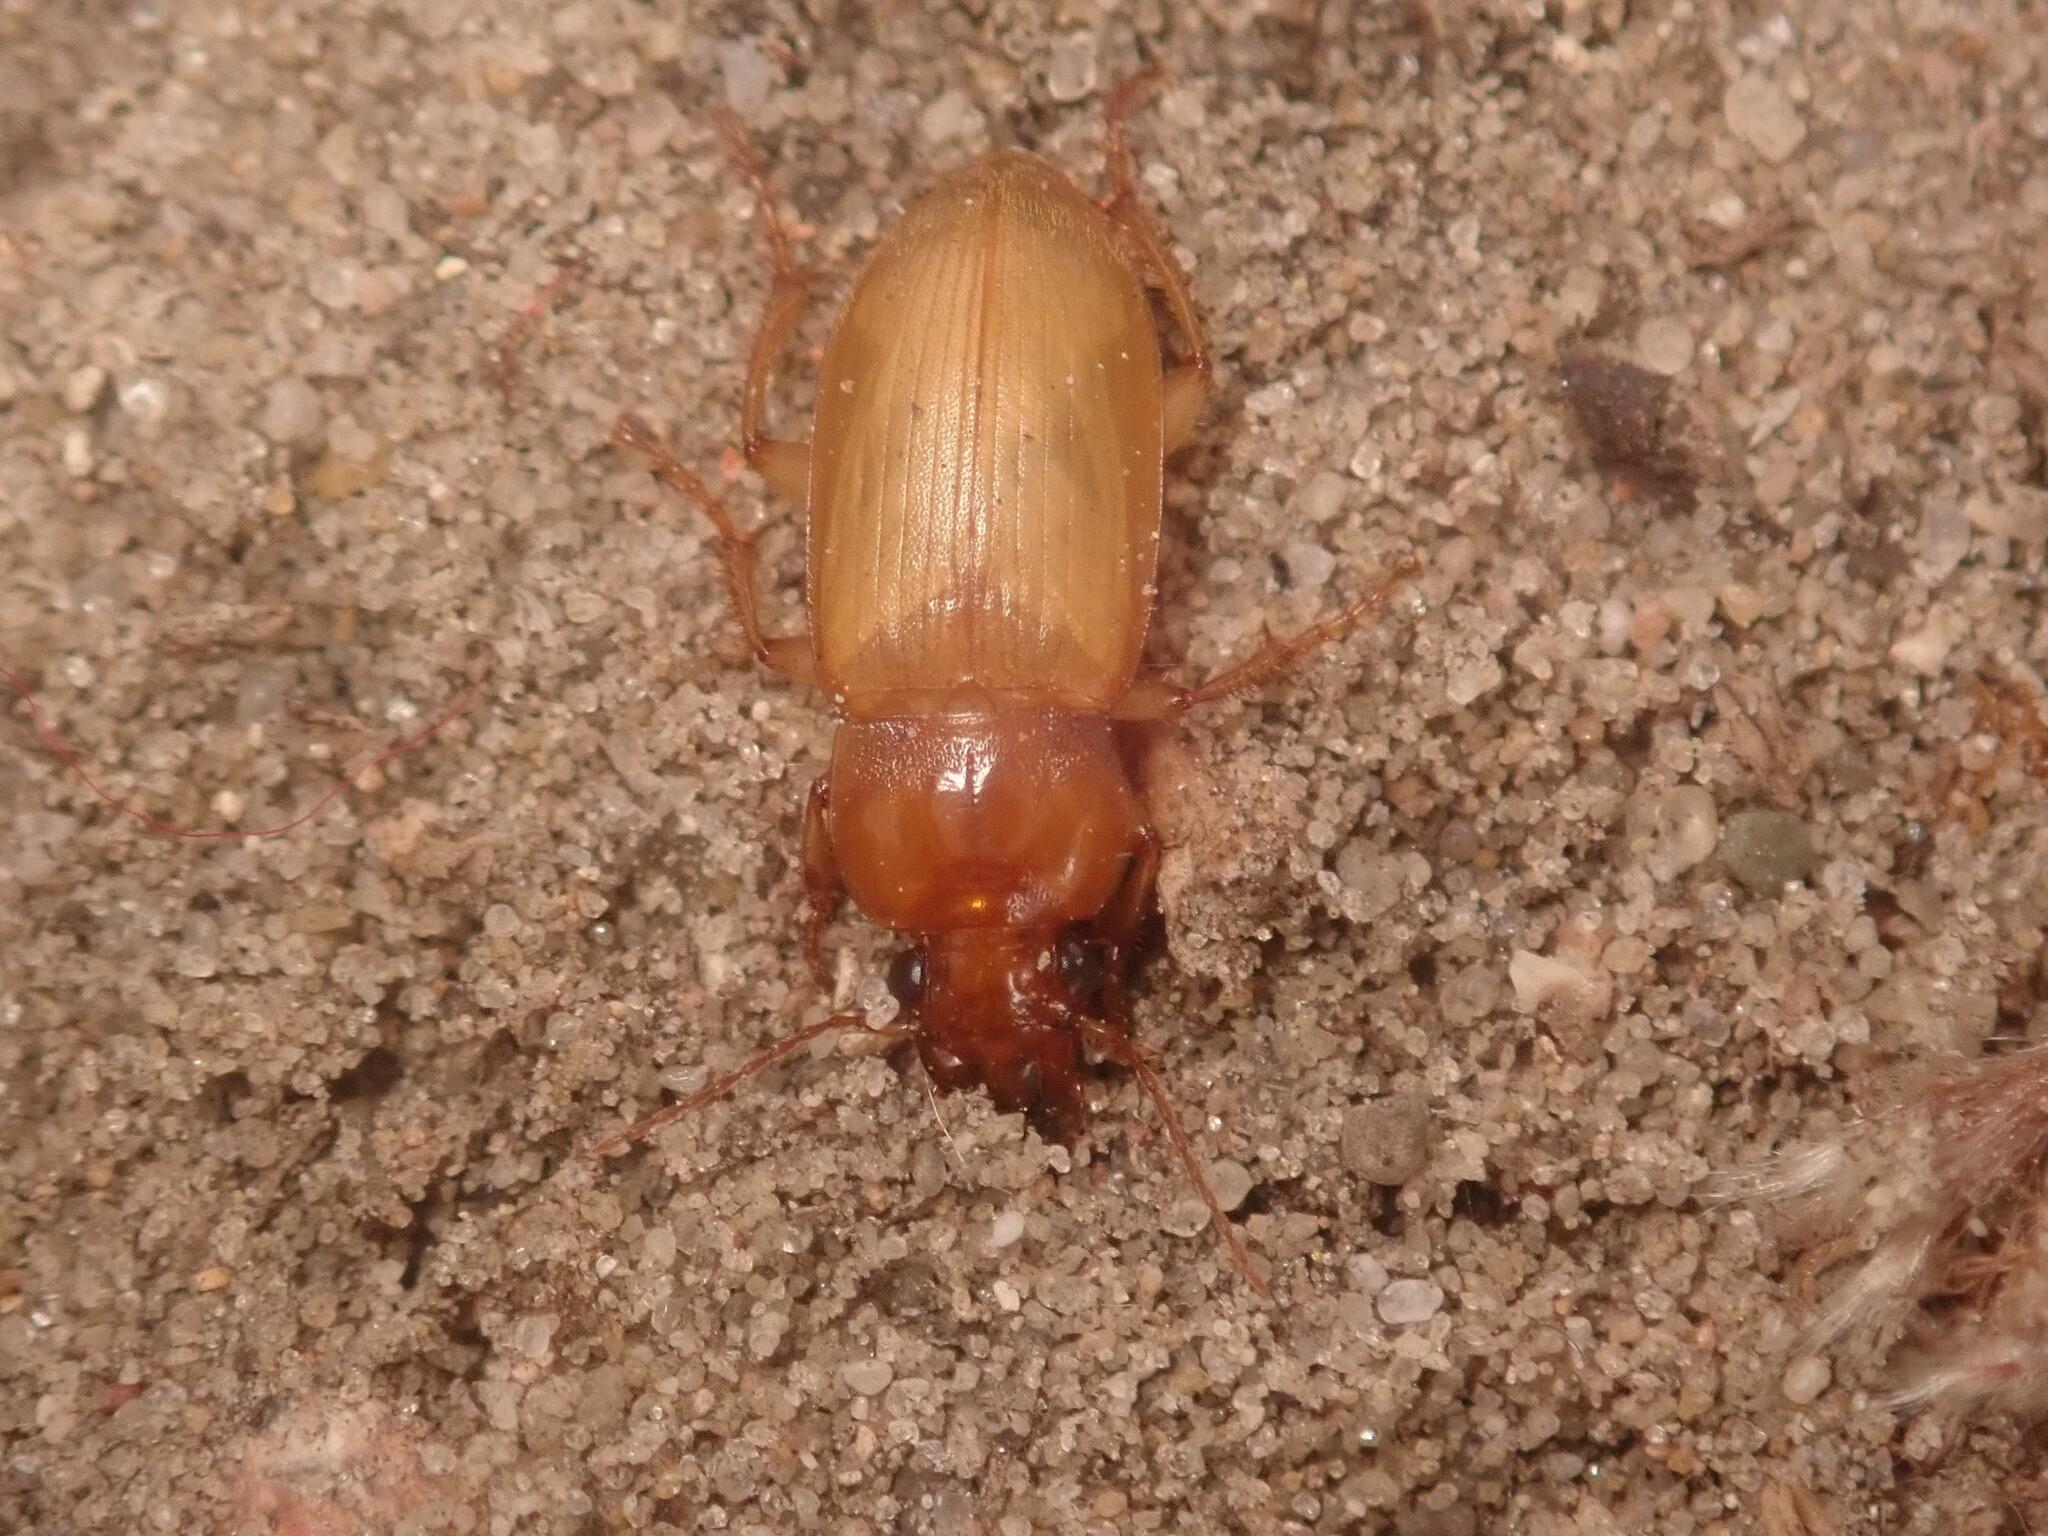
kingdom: Animalia
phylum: Arthropoda
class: Insecta
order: Coleoptera
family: Carabidae
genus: Harpalus
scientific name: Harpalus griseus
